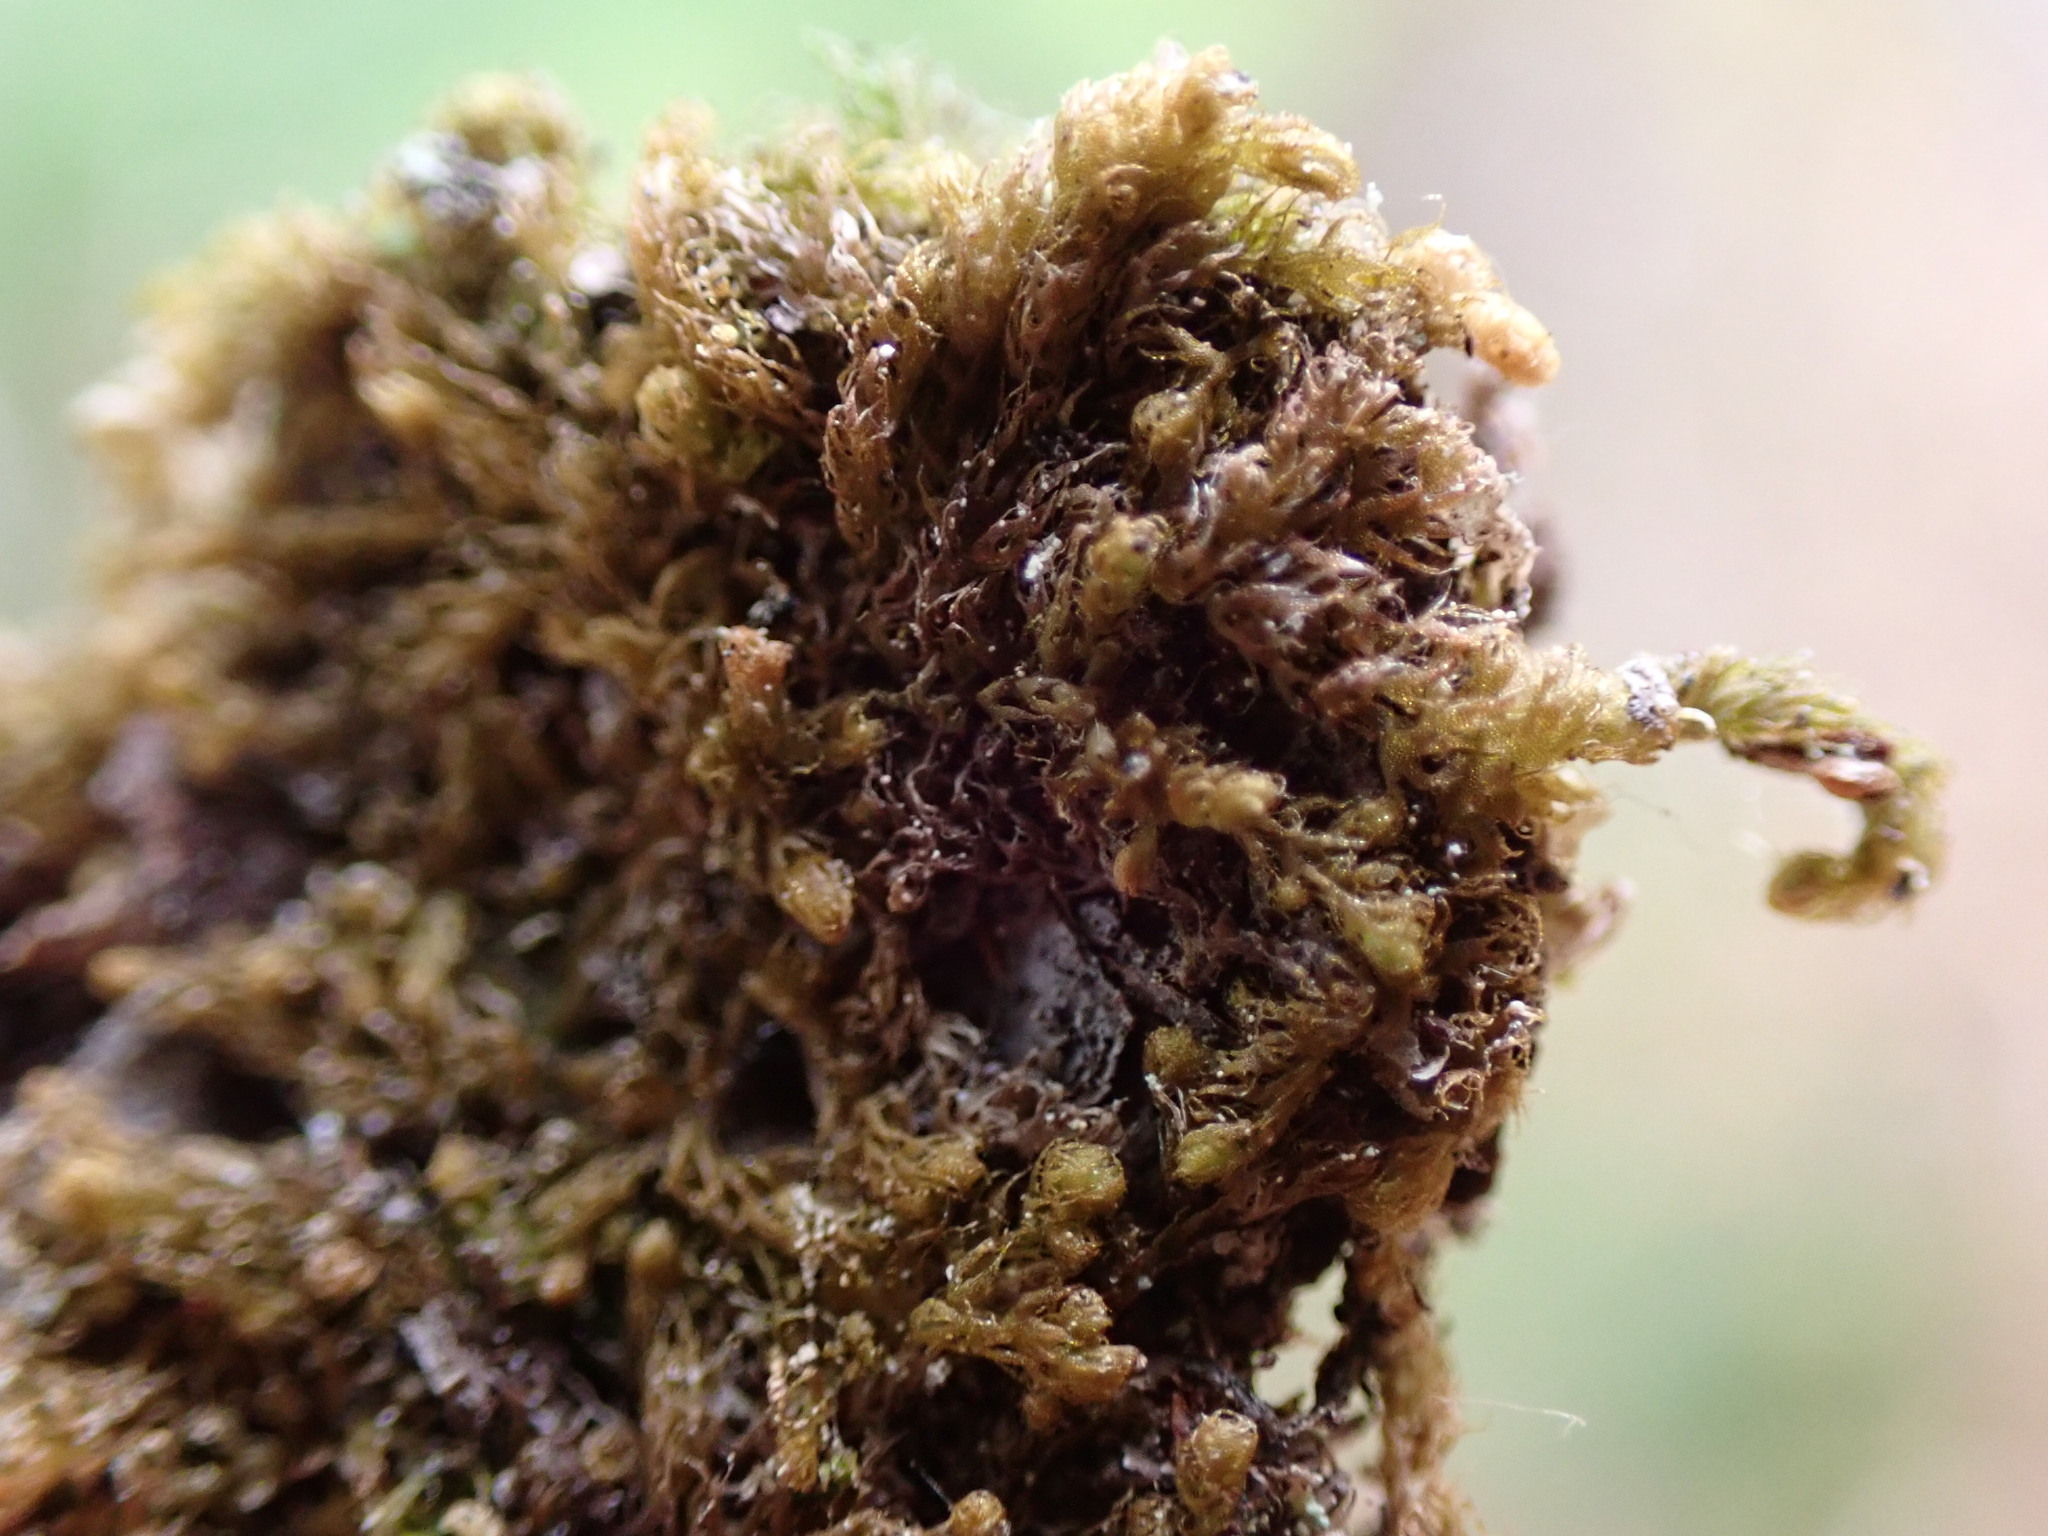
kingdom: Plantae
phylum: Marchantiophyta
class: Jungermanniopsida
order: Ptilidiales
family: Ptilidiaceae
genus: Ptilidium
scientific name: Ptilidium californicum
